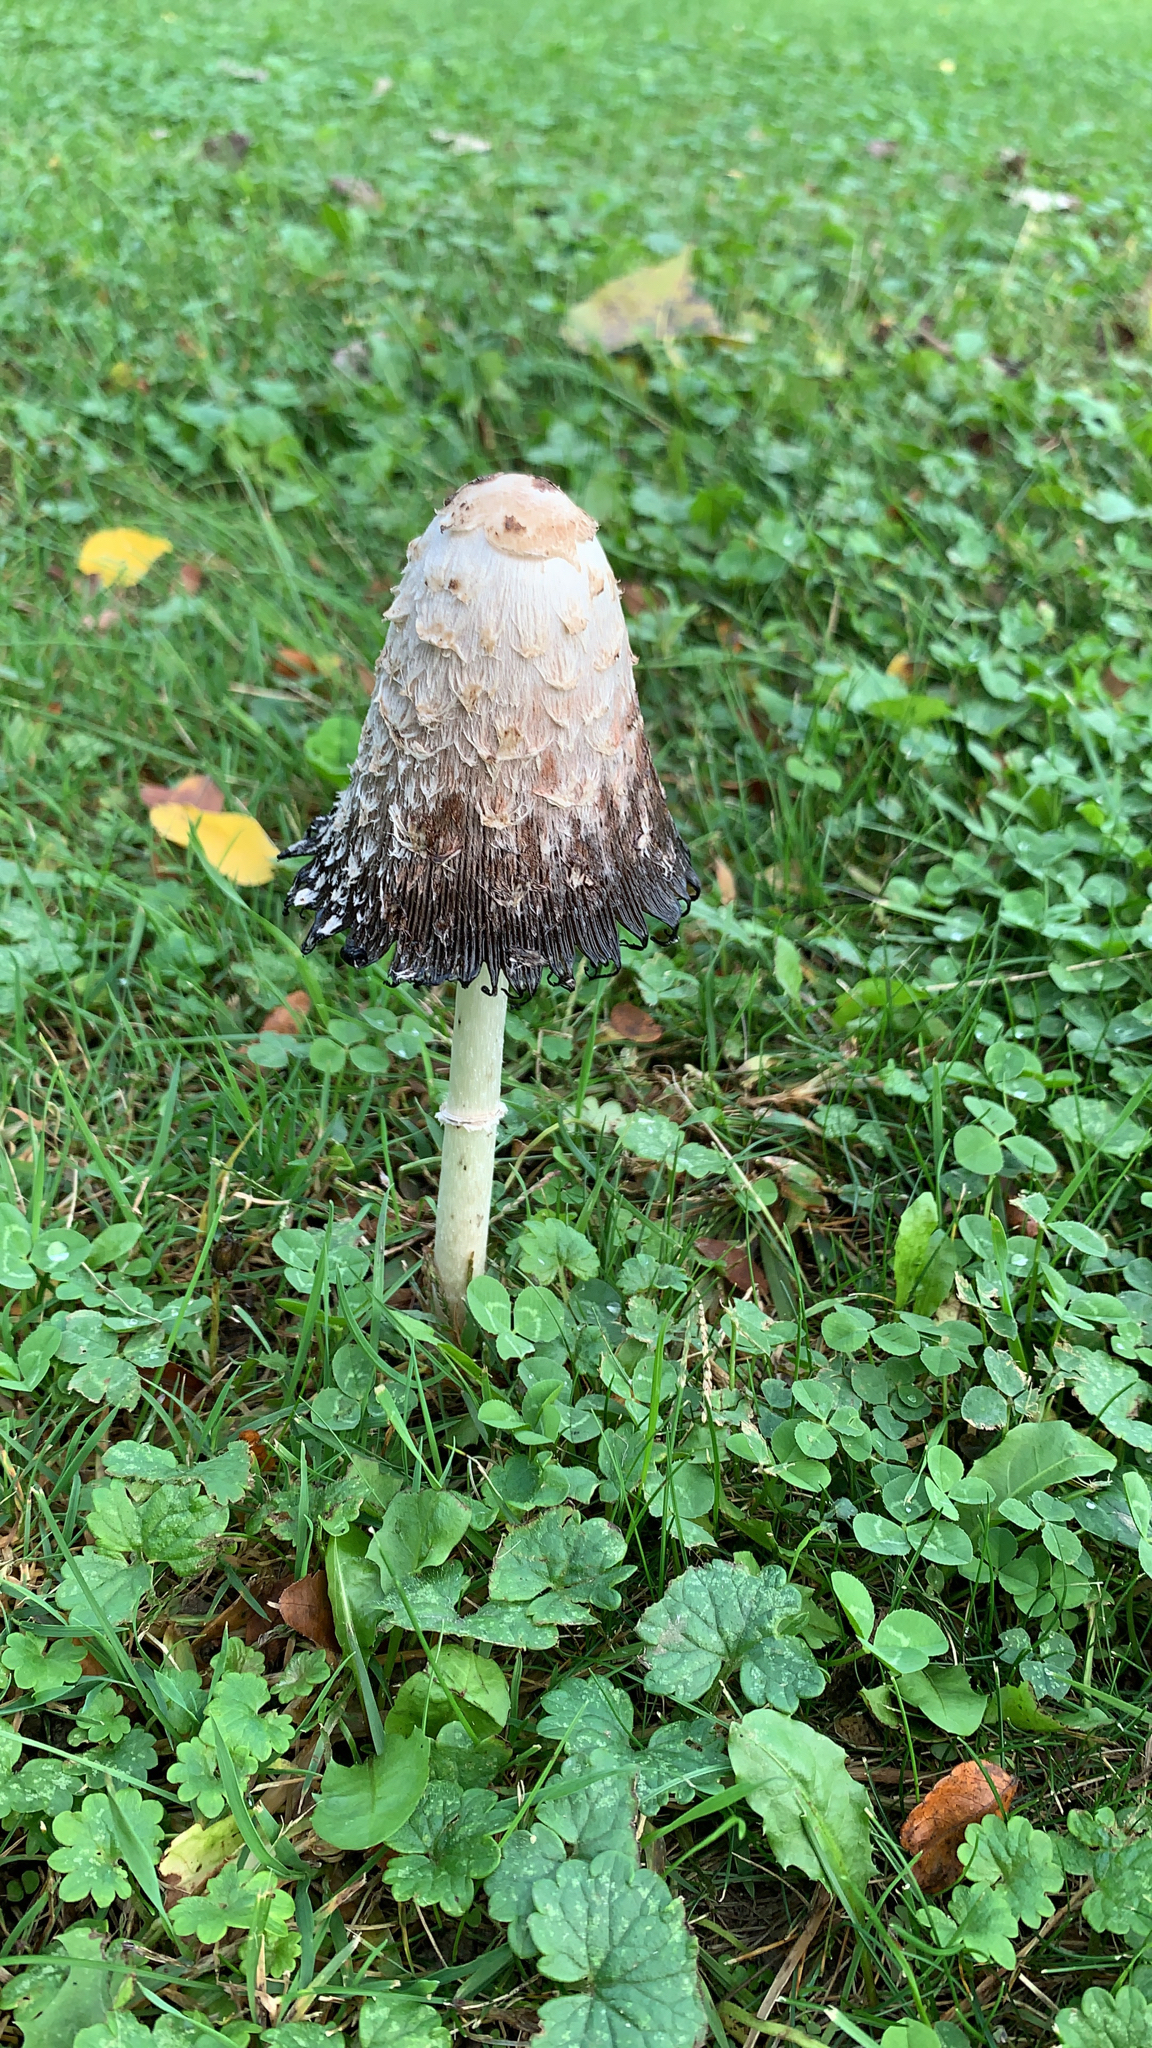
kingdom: Fungi
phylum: Basidiomycota
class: Agaricomycetes
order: Agaricales
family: Agaricaceae
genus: Coprinus
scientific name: Coprinus comatus
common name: Lawyer's wig
